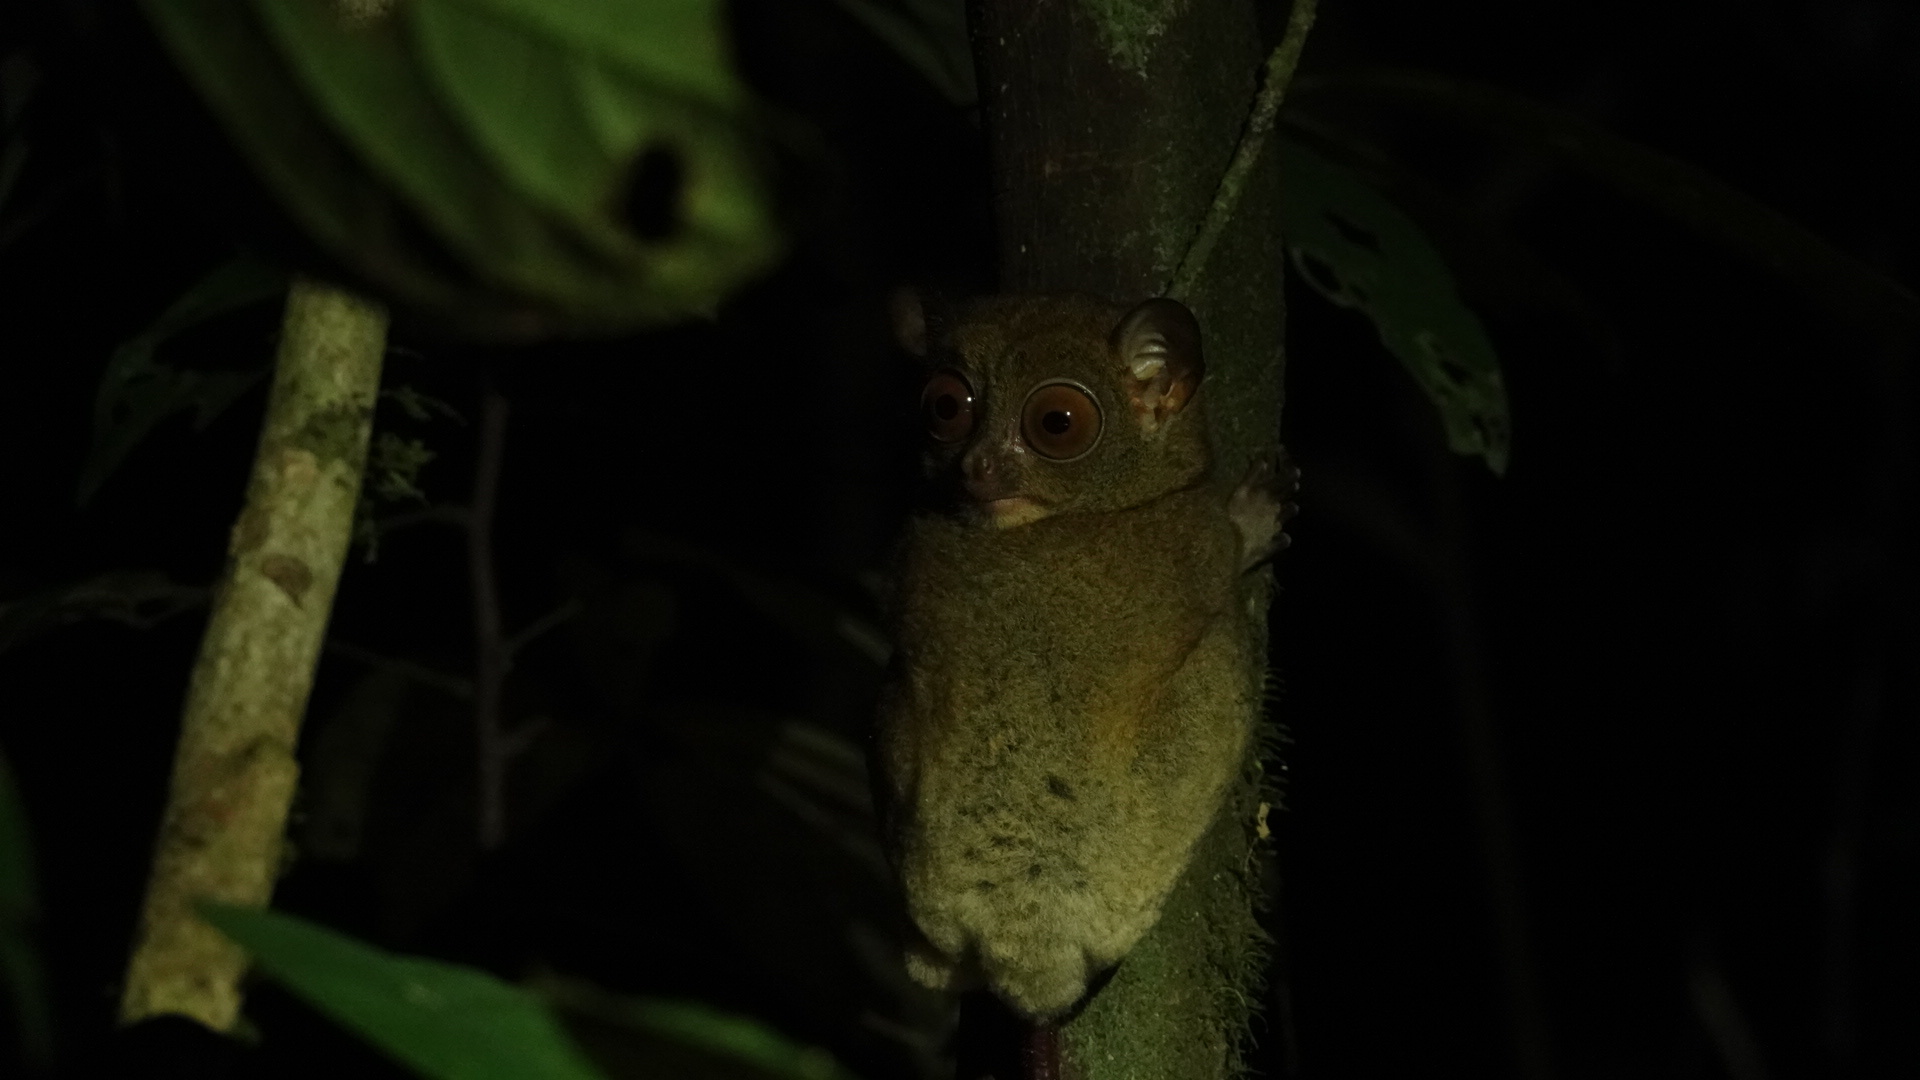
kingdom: Animalia
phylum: Chordata
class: Mammalia
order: Primates
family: Tarsiidae
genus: Cephalopachus
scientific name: Cephalopachus bancanus
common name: Western tarsier
